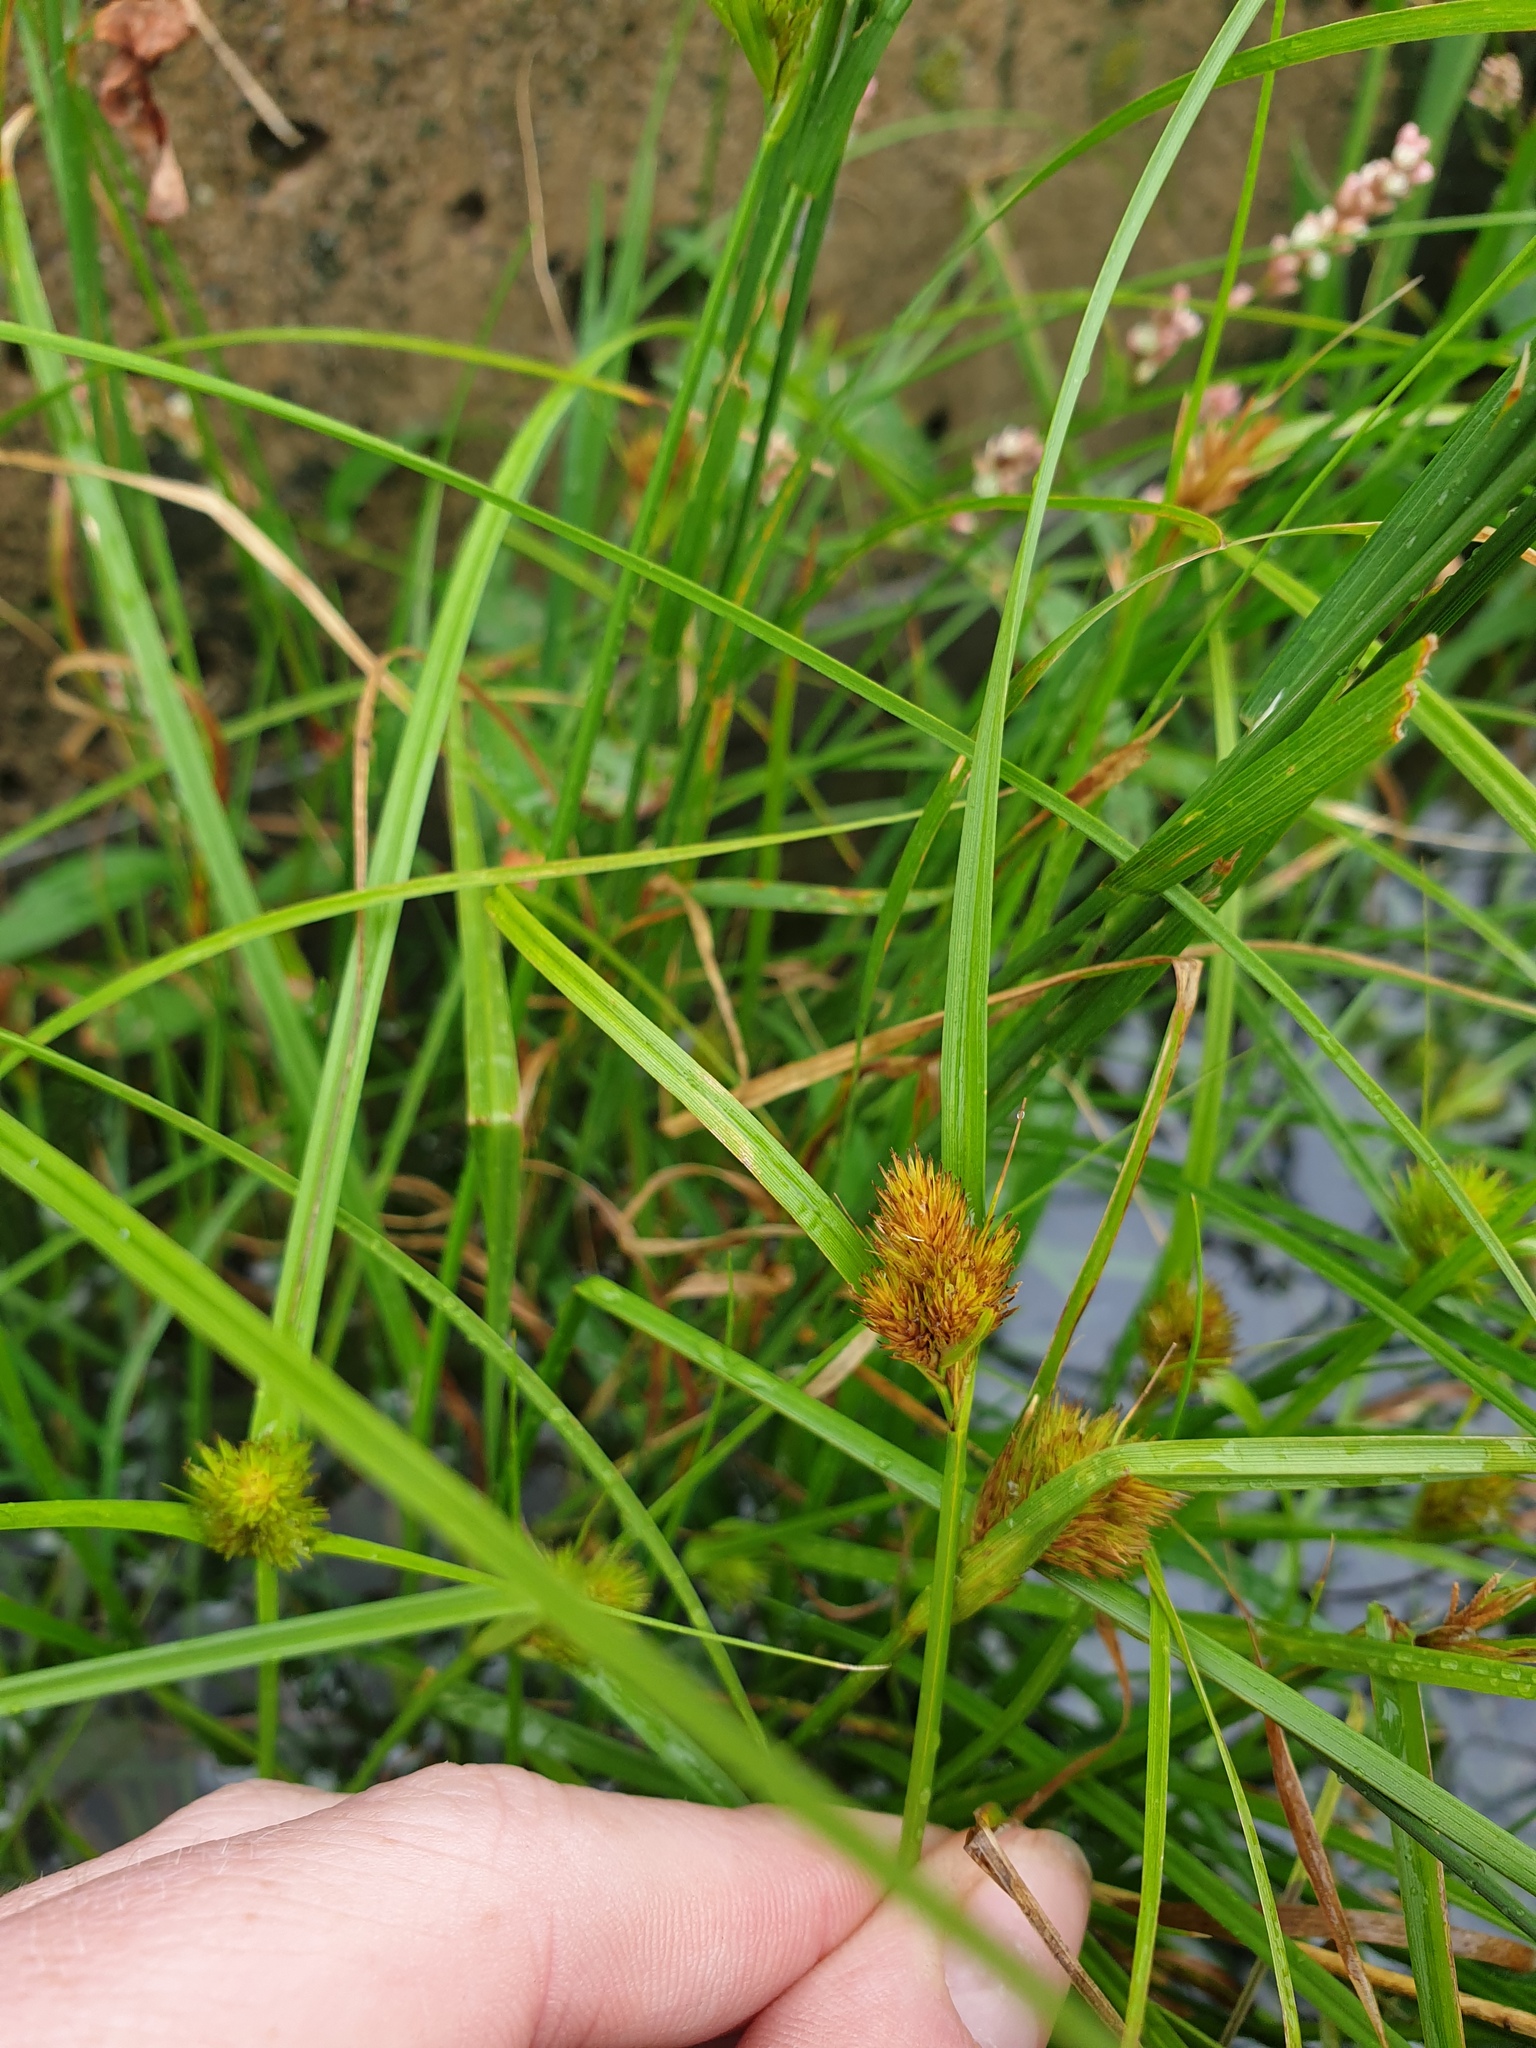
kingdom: Plantae
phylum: Tracheophyta
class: Liliopsida
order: Poales
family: Cyperaceae
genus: Carex
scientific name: Carex sychnocephala
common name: Dense long-beaked sedge
